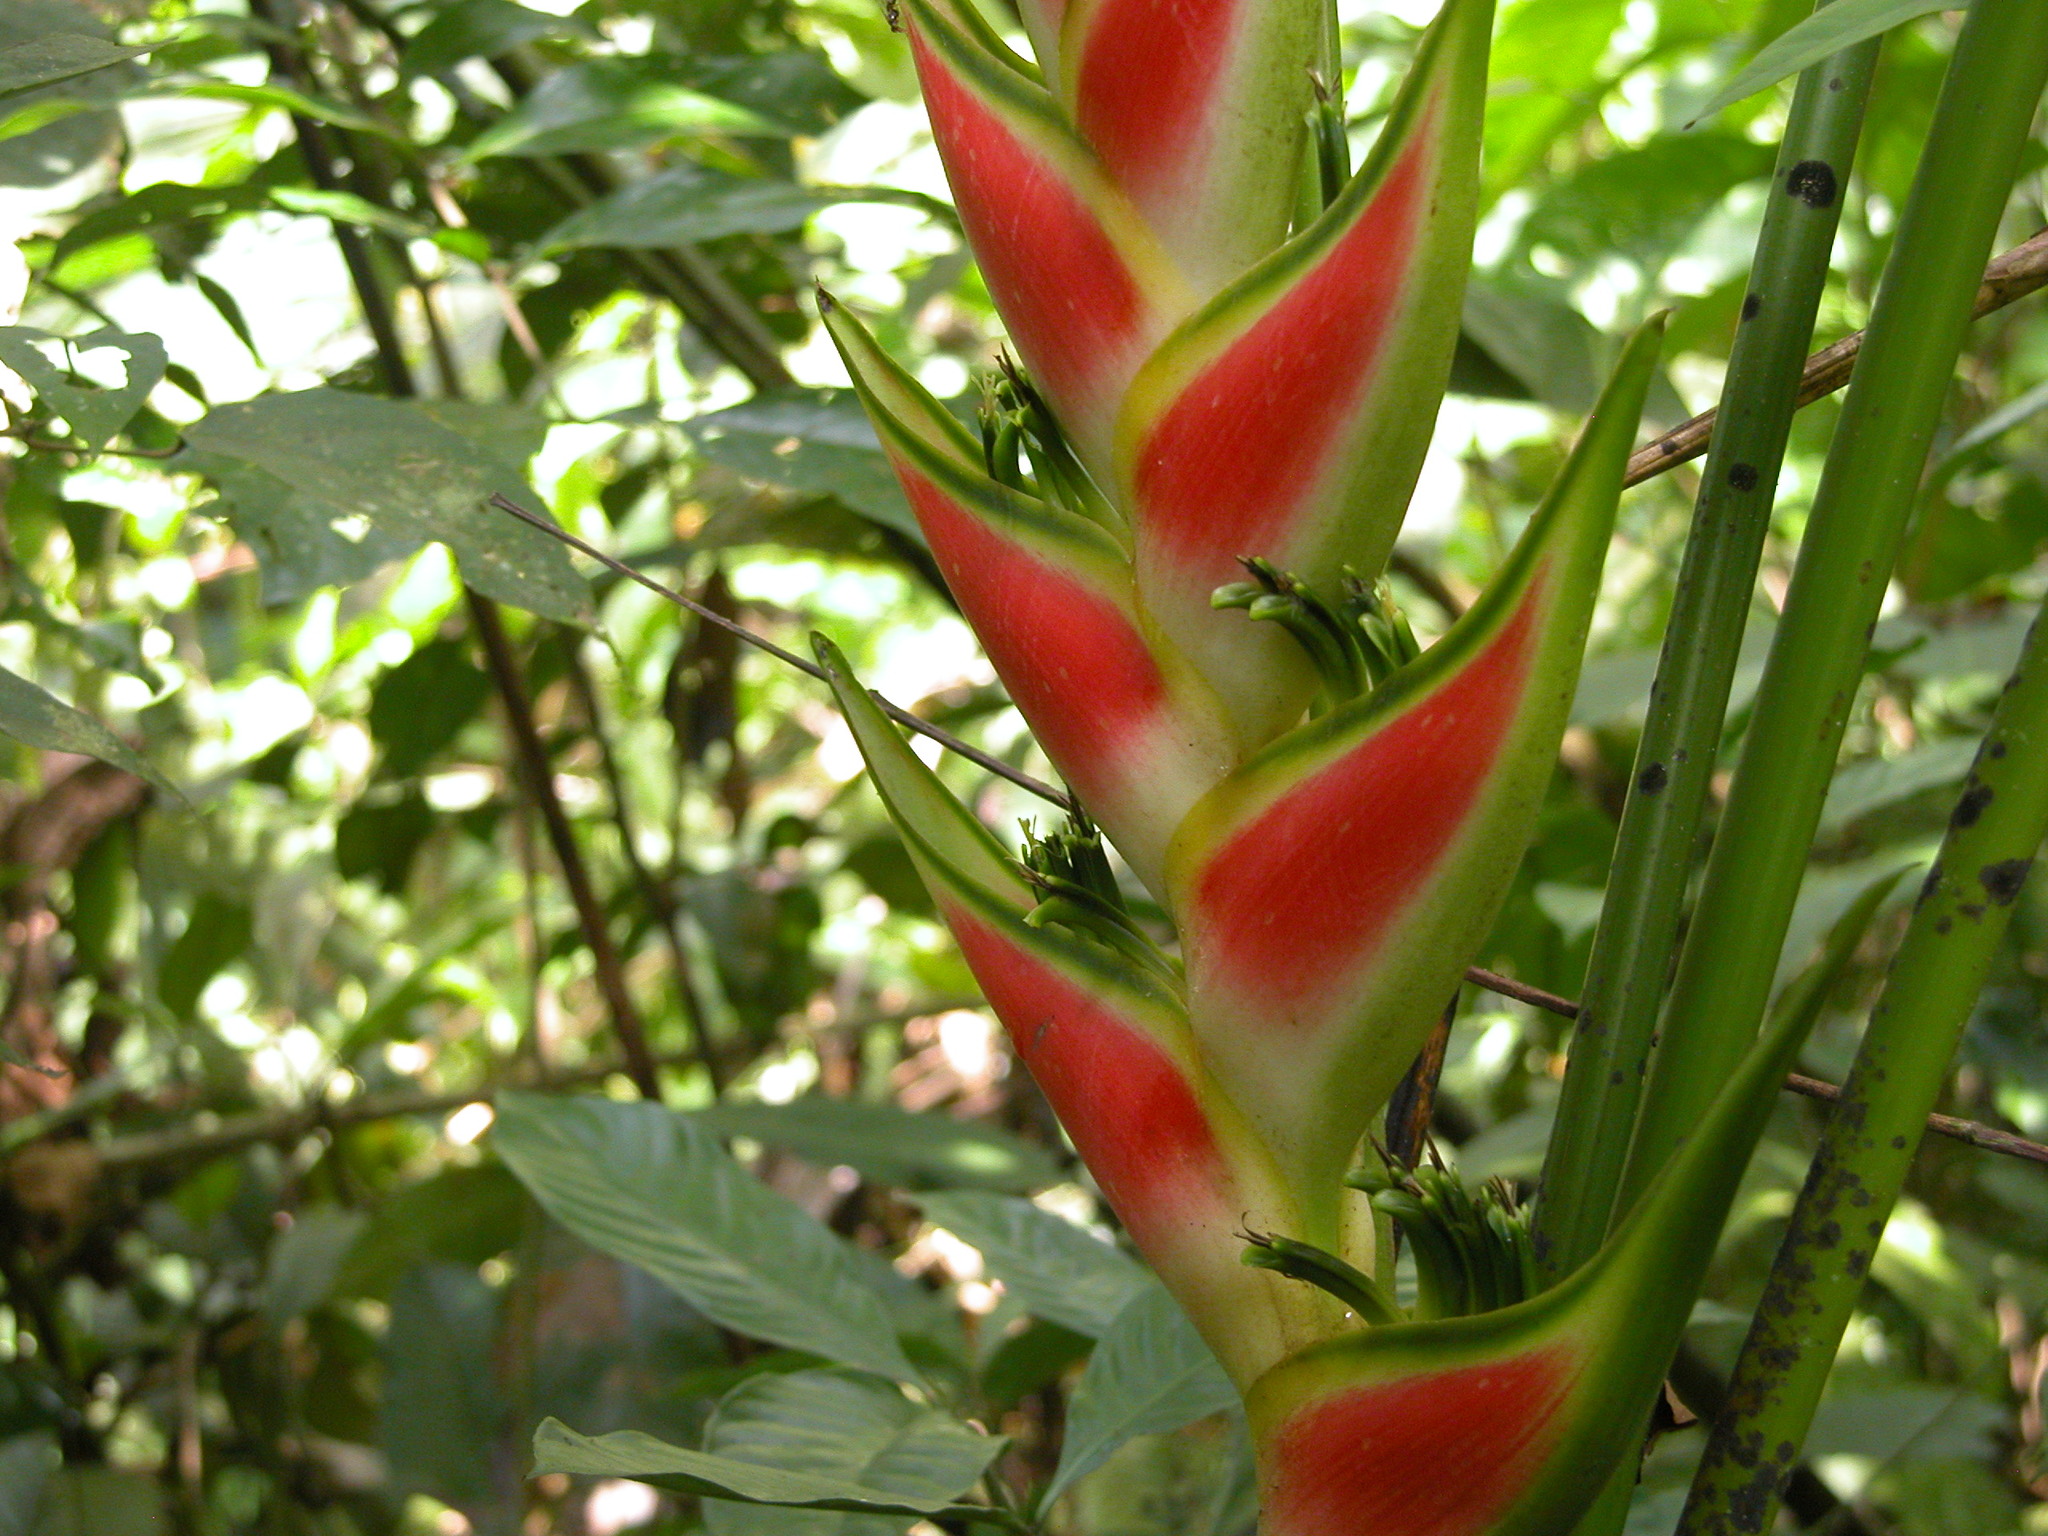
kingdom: Plantae
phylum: Tracheophyta
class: Liliopsida
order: Zingiberales
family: Heliconiaceae
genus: Heliconia
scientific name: Heliconia wagneriana
